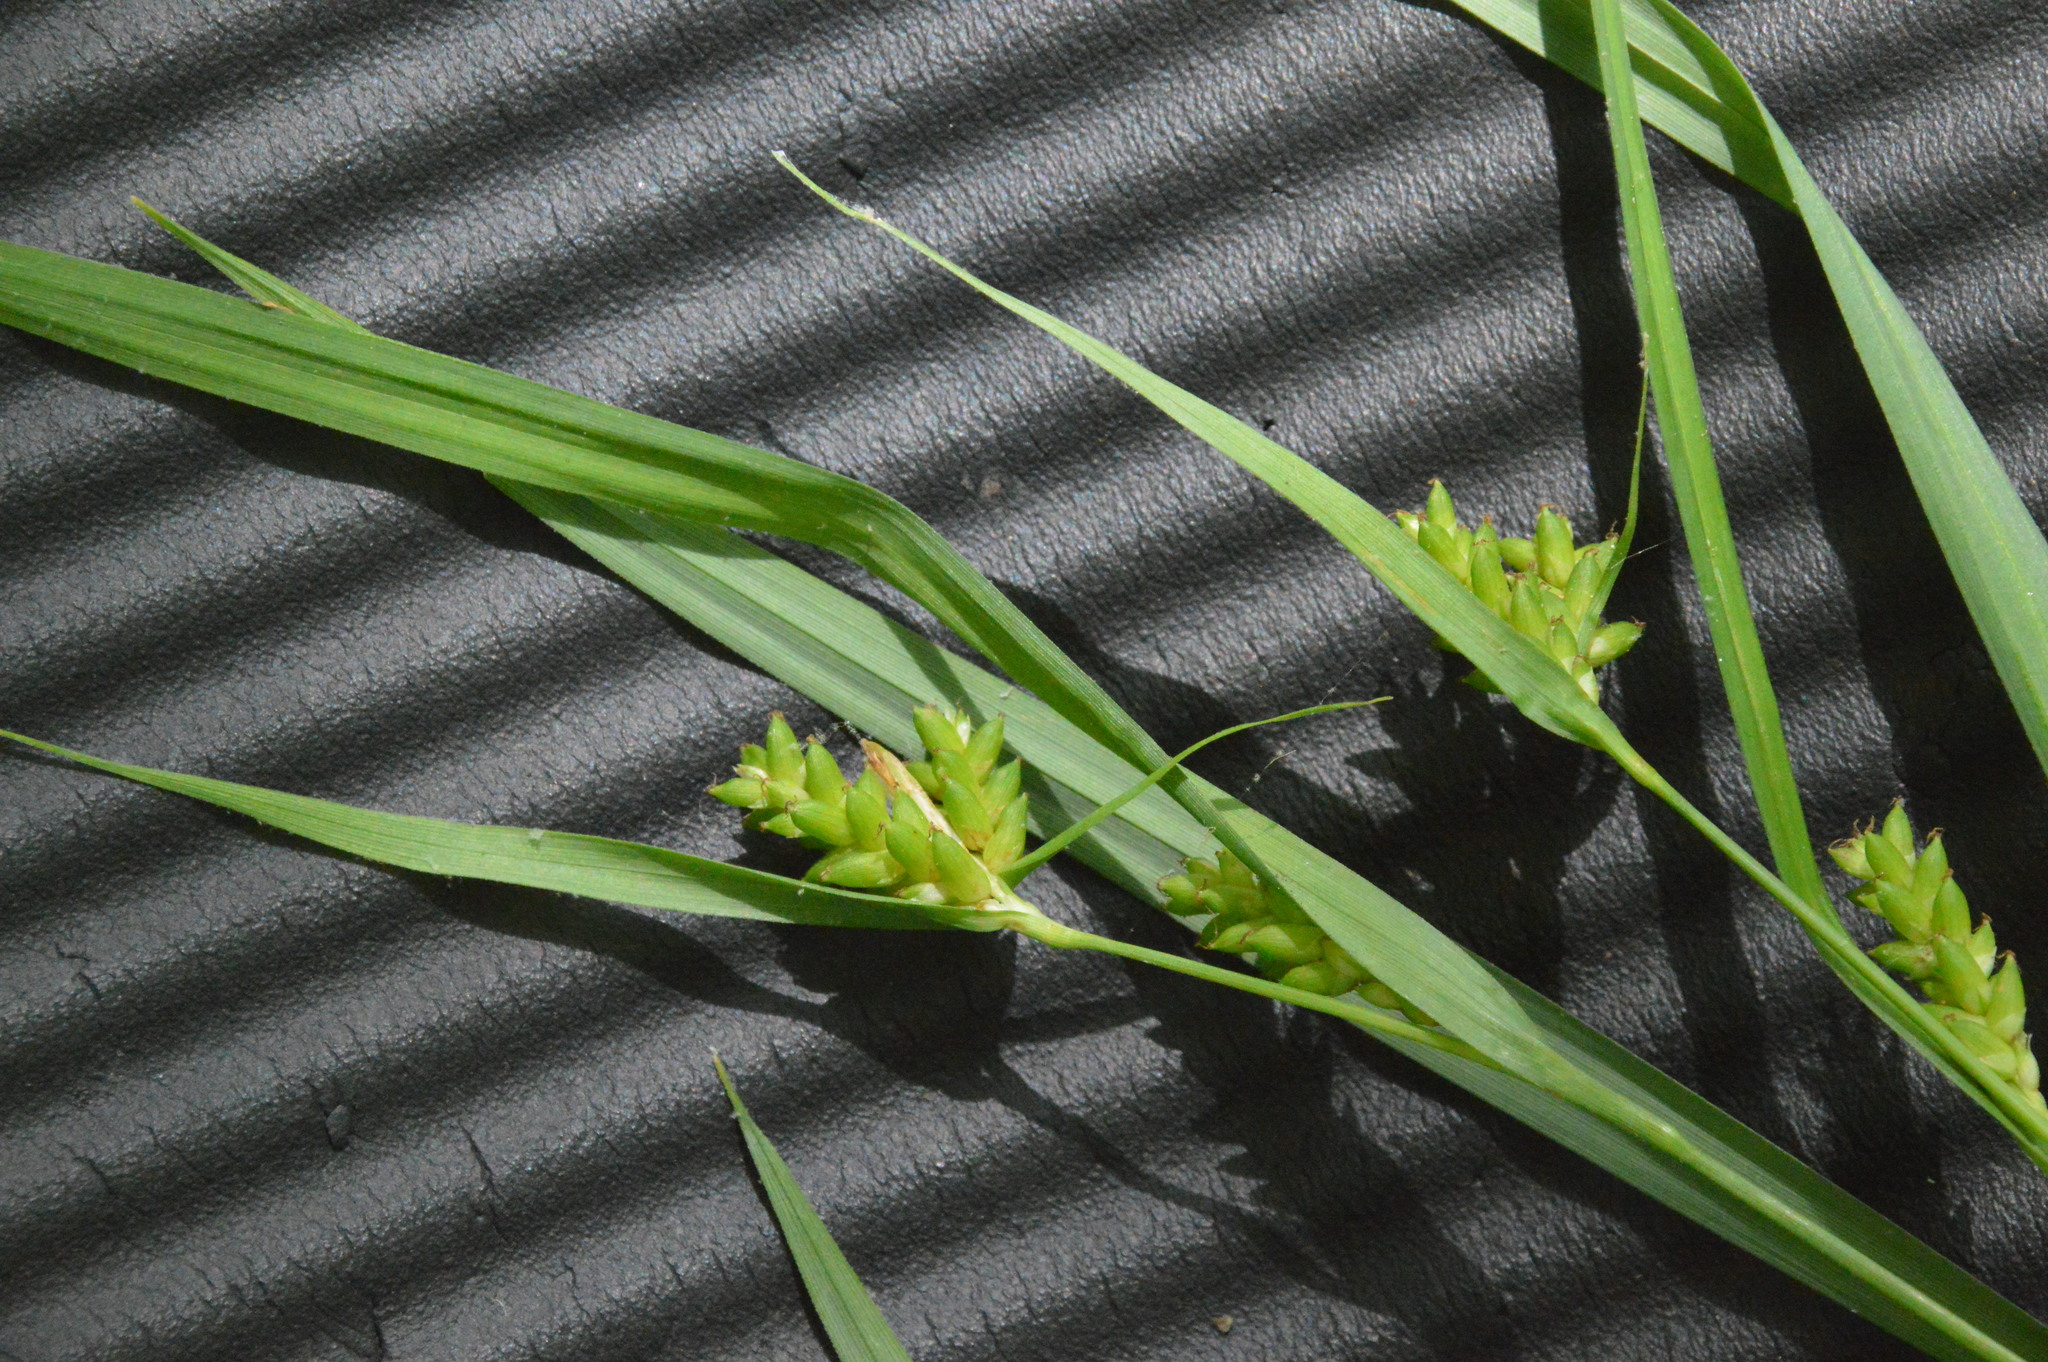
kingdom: Plantae
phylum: Tracheophyta
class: Liliopsida
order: Poales
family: Cyperaceae
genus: Carex
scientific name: Carex flaccosperma
